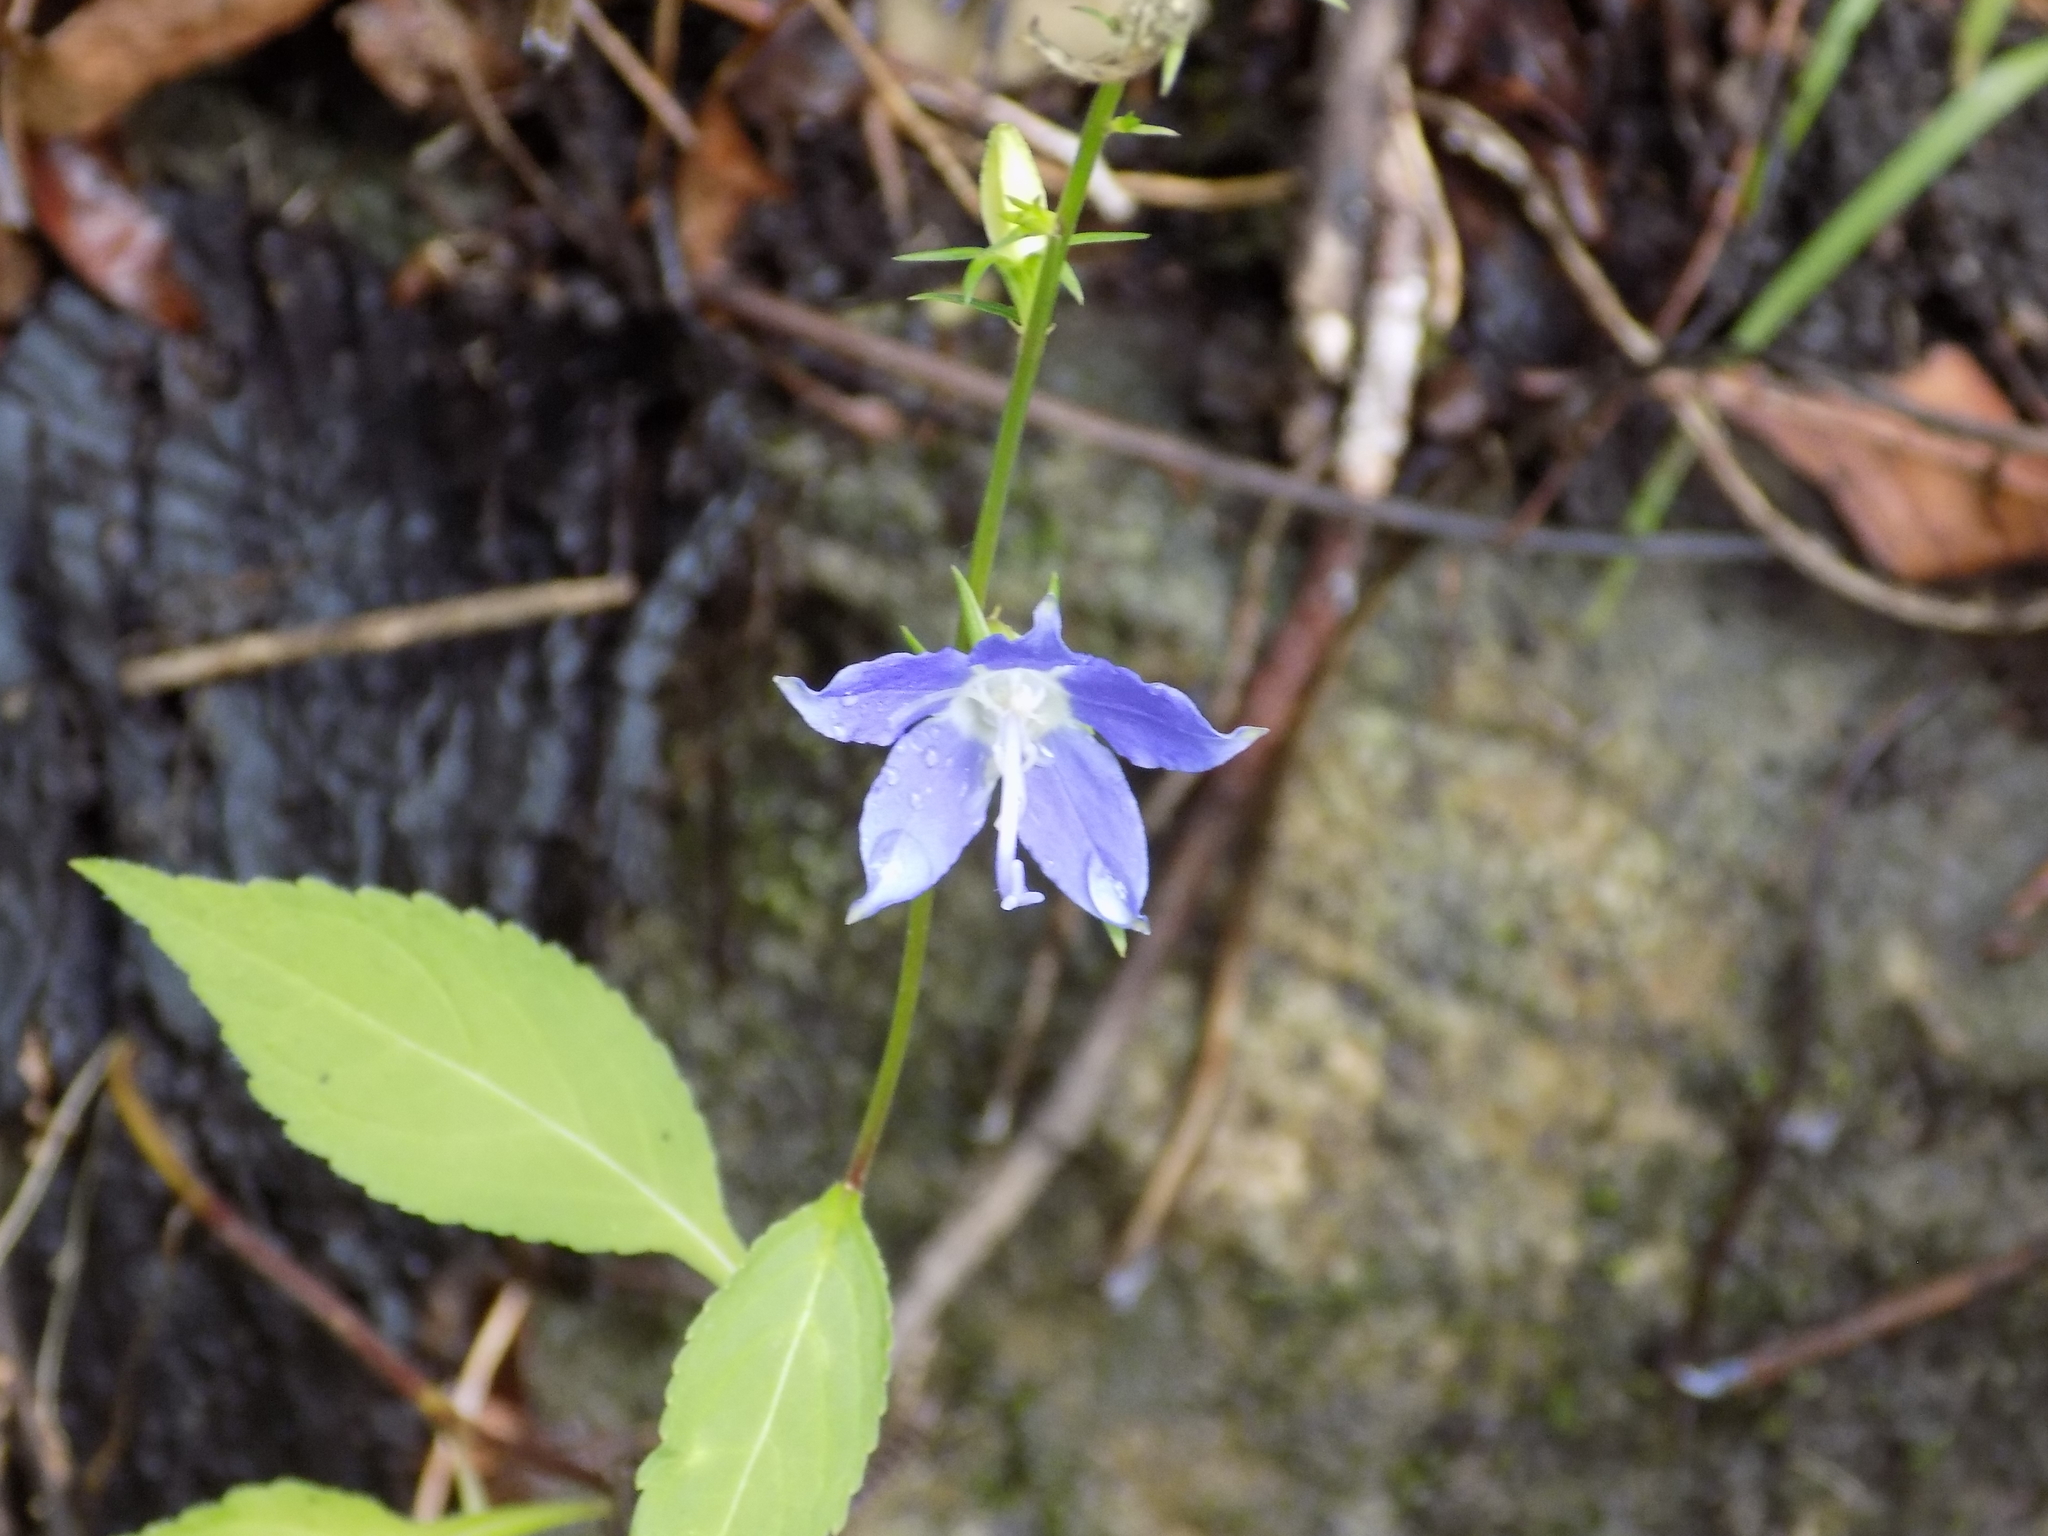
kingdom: Plantae
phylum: Tracheophyta
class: Magnoliopsida
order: Asterales
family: Campanulaceae
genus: Campanulastrum
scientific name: Campanulastrum americanum
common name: American bellflower
